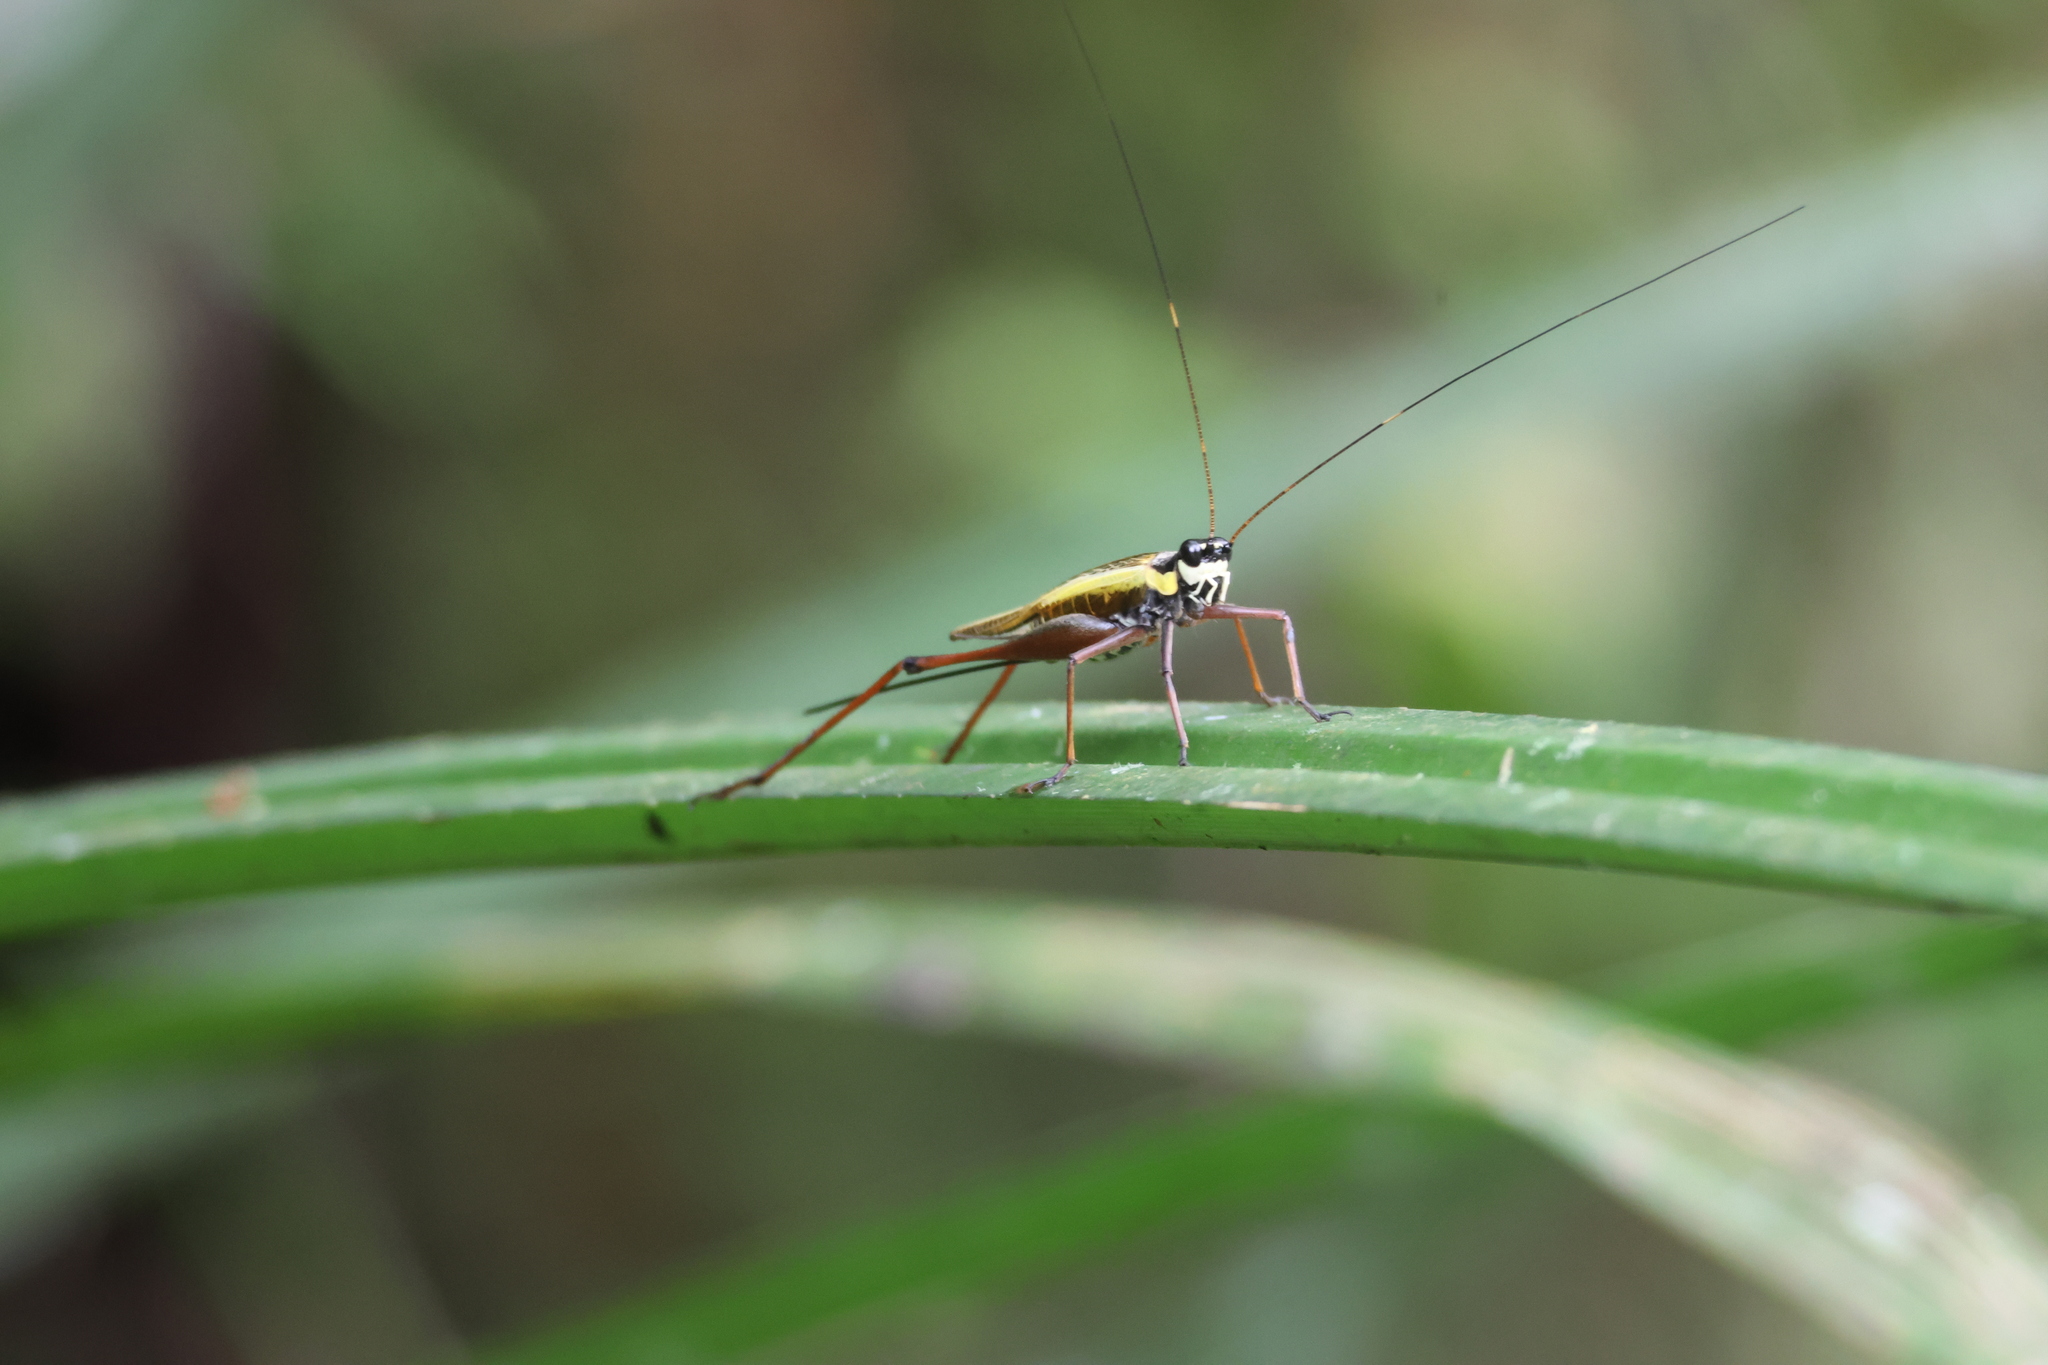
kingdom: Animalia
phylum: Arthropoda
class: Insecta
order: Orthoptera
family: Gryllidae
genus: Nisitrus
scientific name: Nisitrus musicus
